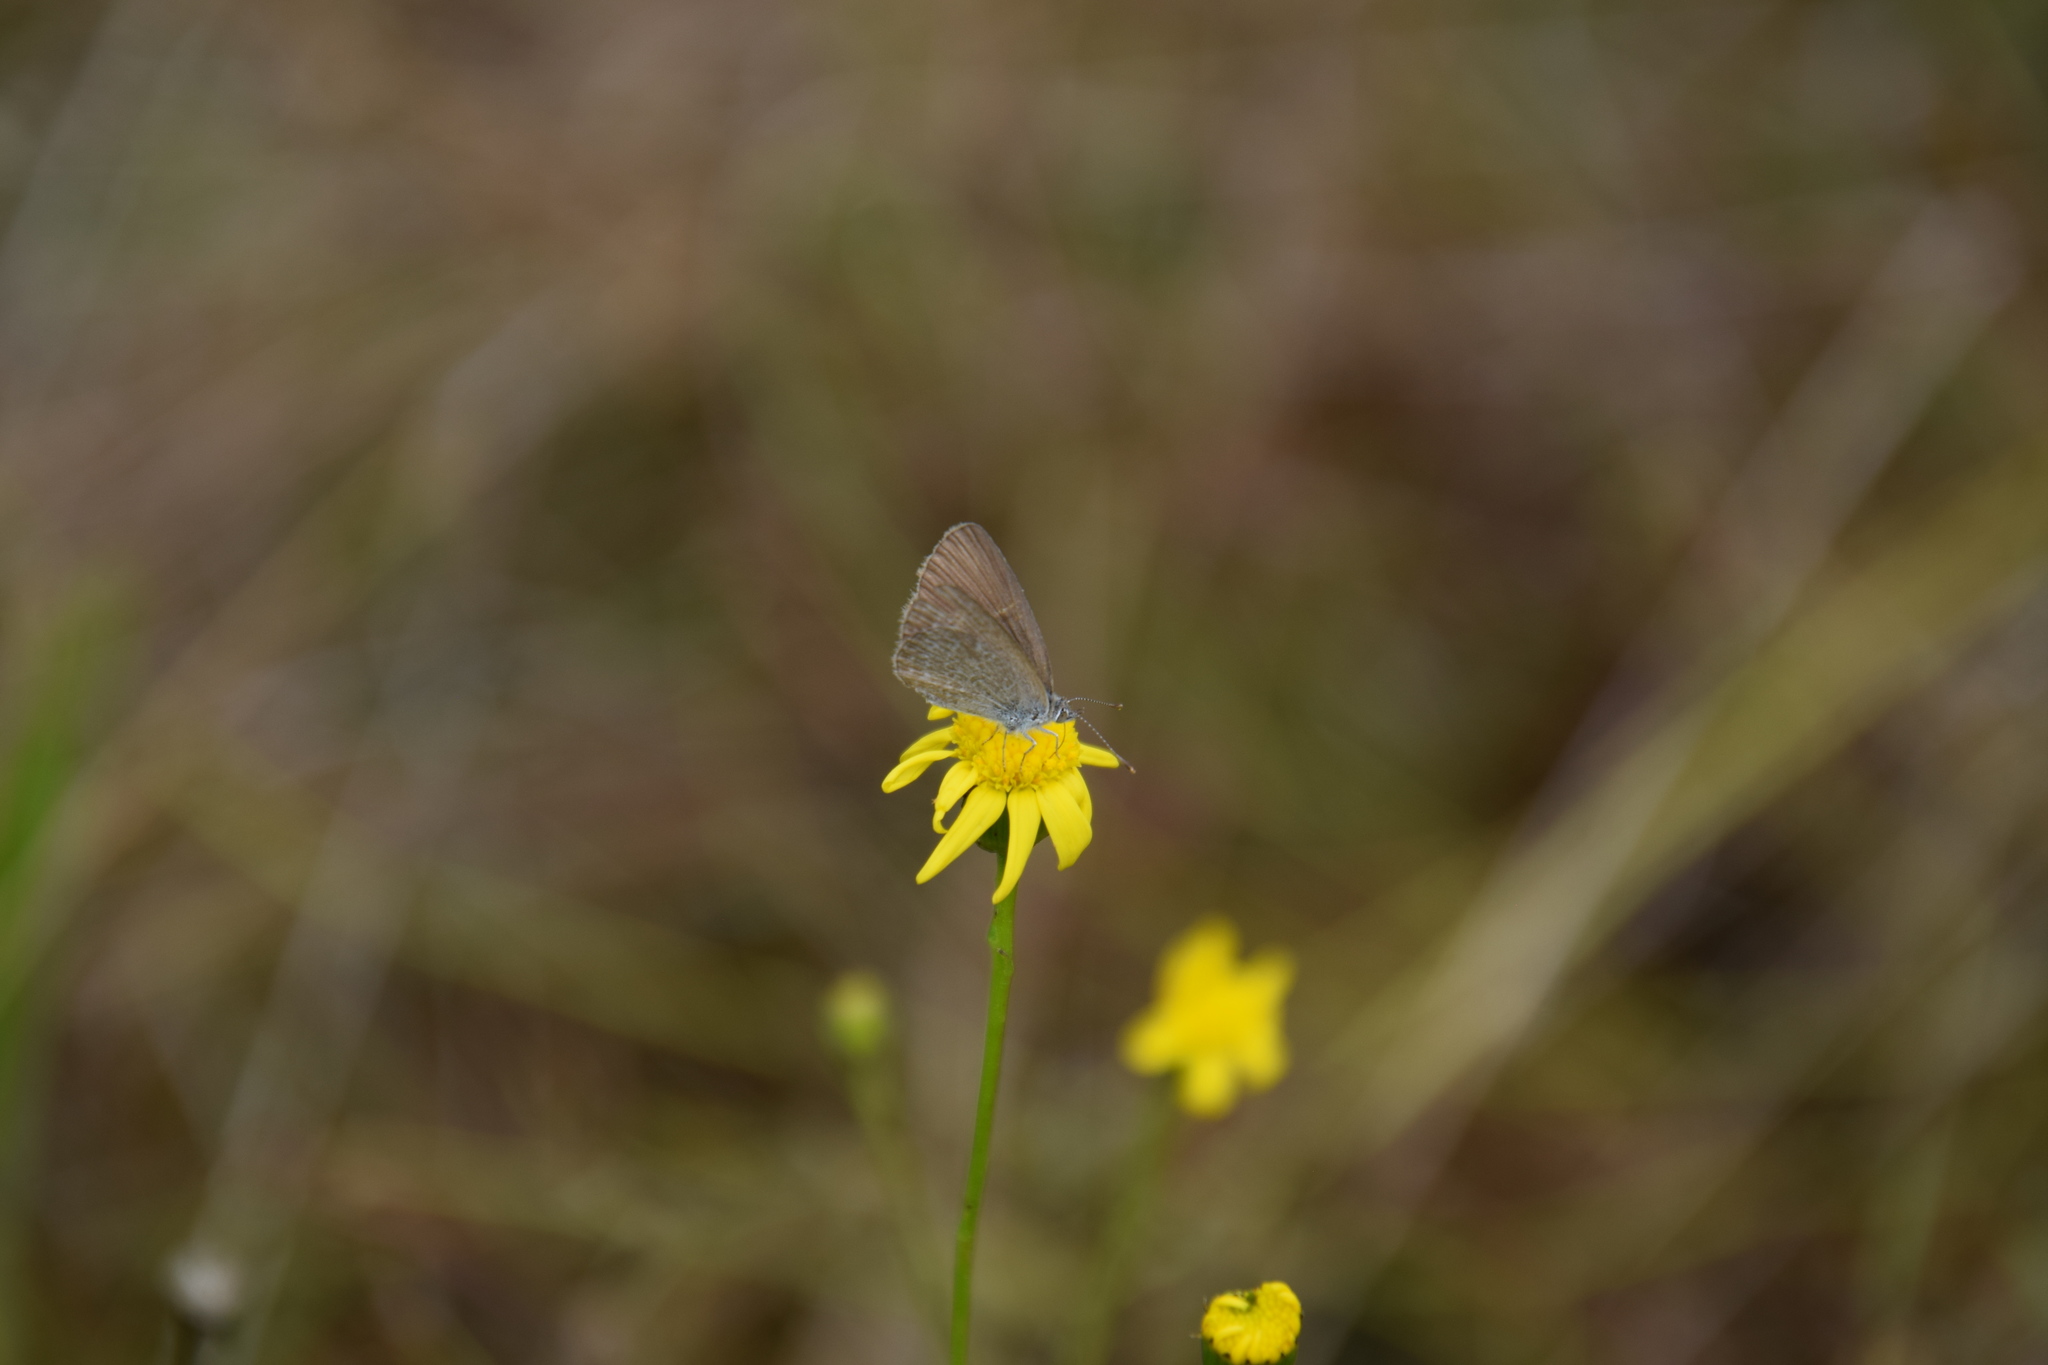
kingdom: Animalia
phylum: Arthropoda
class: Insecta
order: Lepidoptera
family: Lycaenidae
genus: Zizina
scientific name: Zizina labradus
